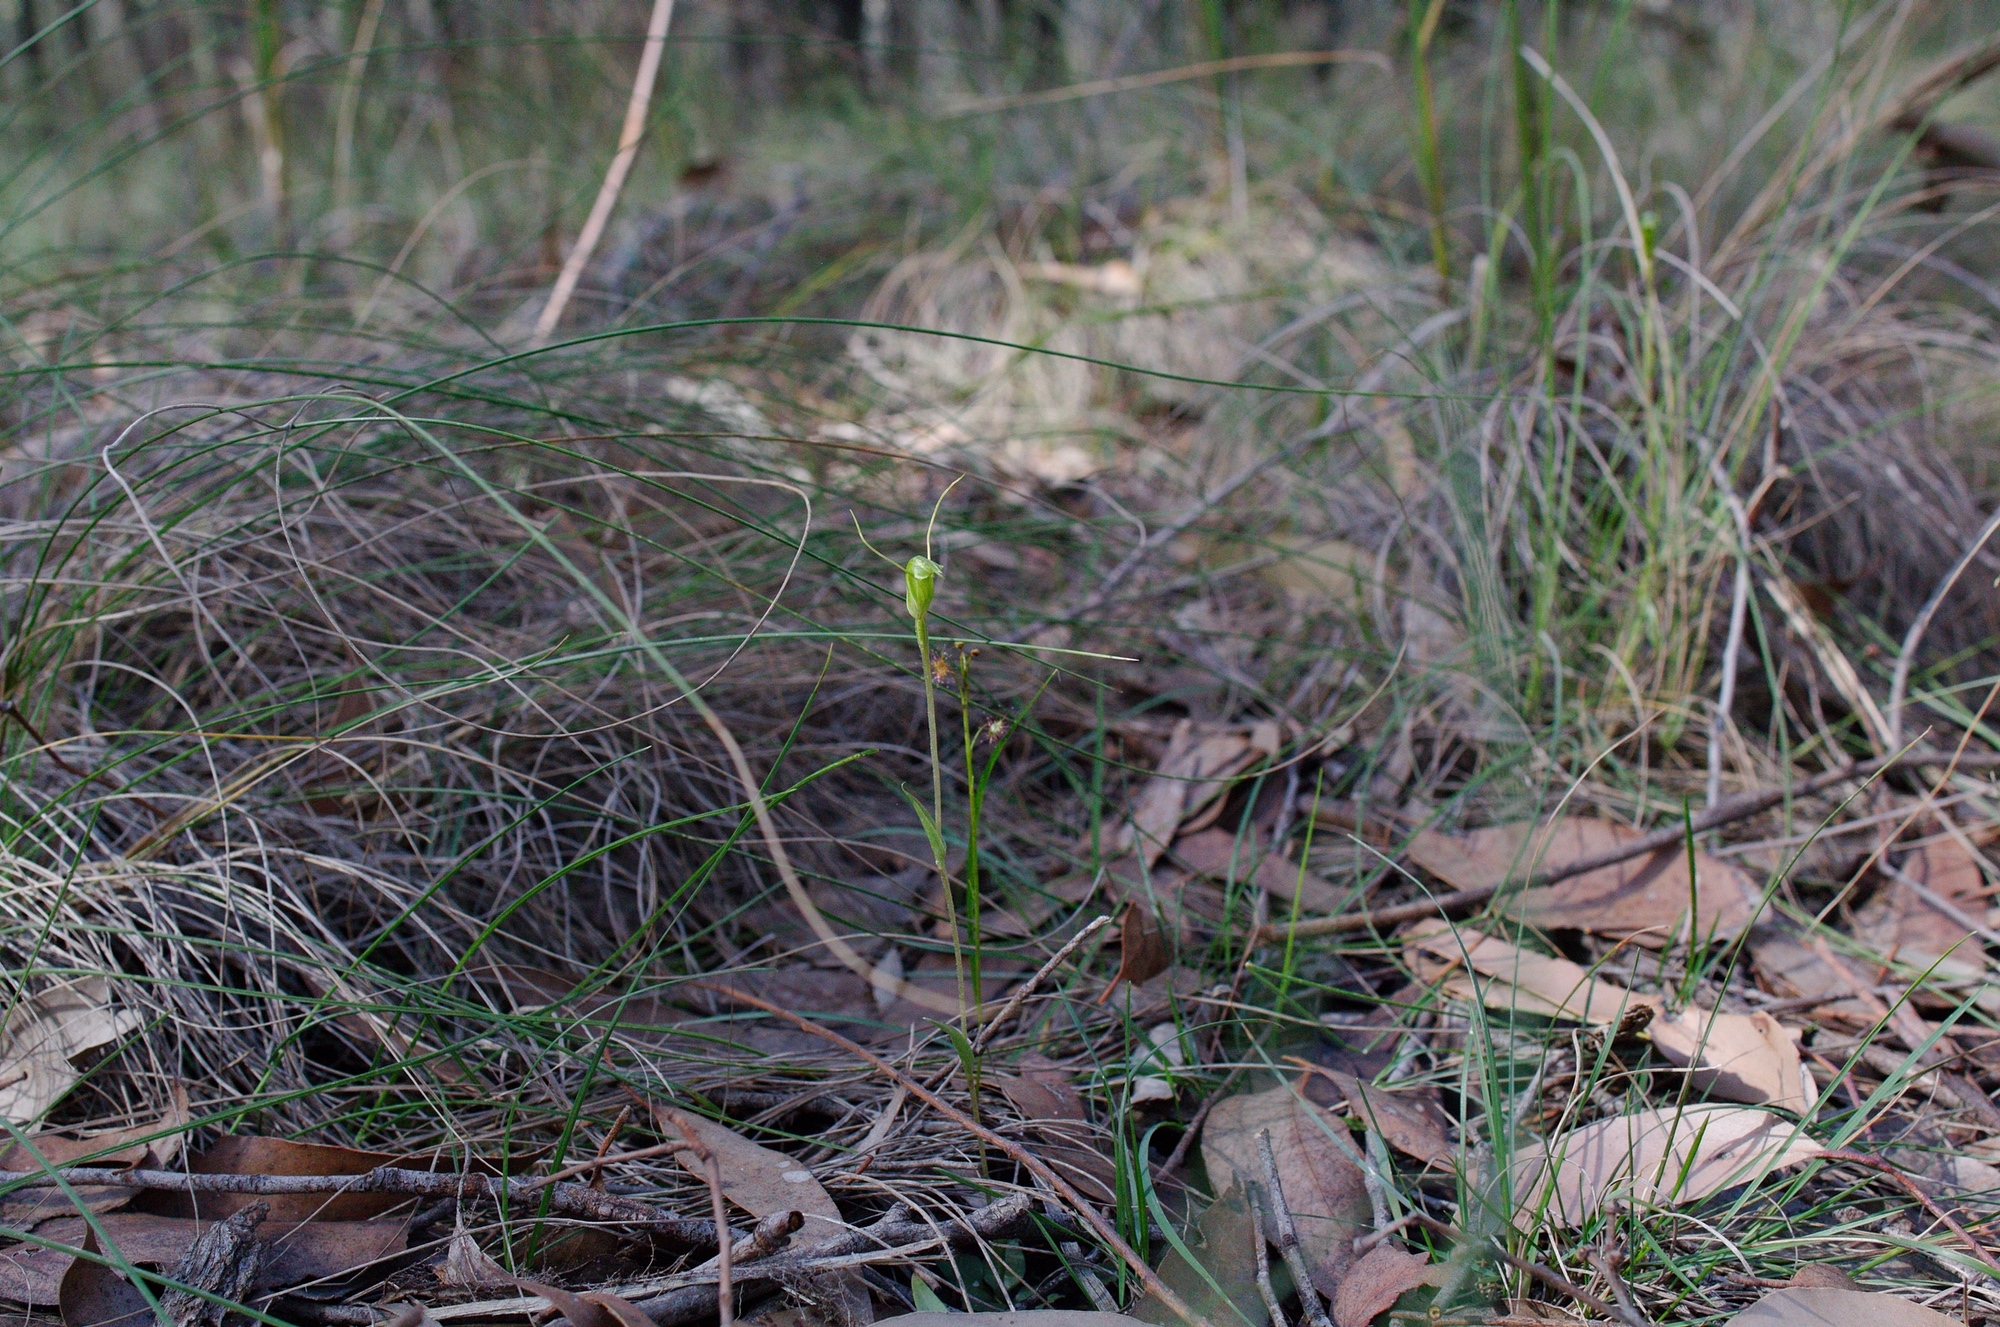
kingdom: Plantae
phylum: Tracheophyta
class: Liliopsida
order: Asparagales
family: Orchidaceae
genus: Pterostylis
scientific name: Pterostylis nana
